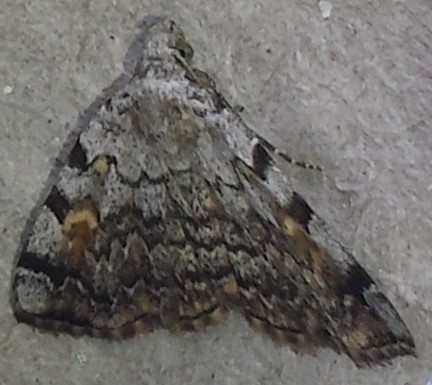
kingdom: Animalia
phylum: Arthropoda
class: Insecta
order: Lepidoptera
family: Erebidae
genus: Idia
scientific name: Idia americalis
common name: American idia moth
